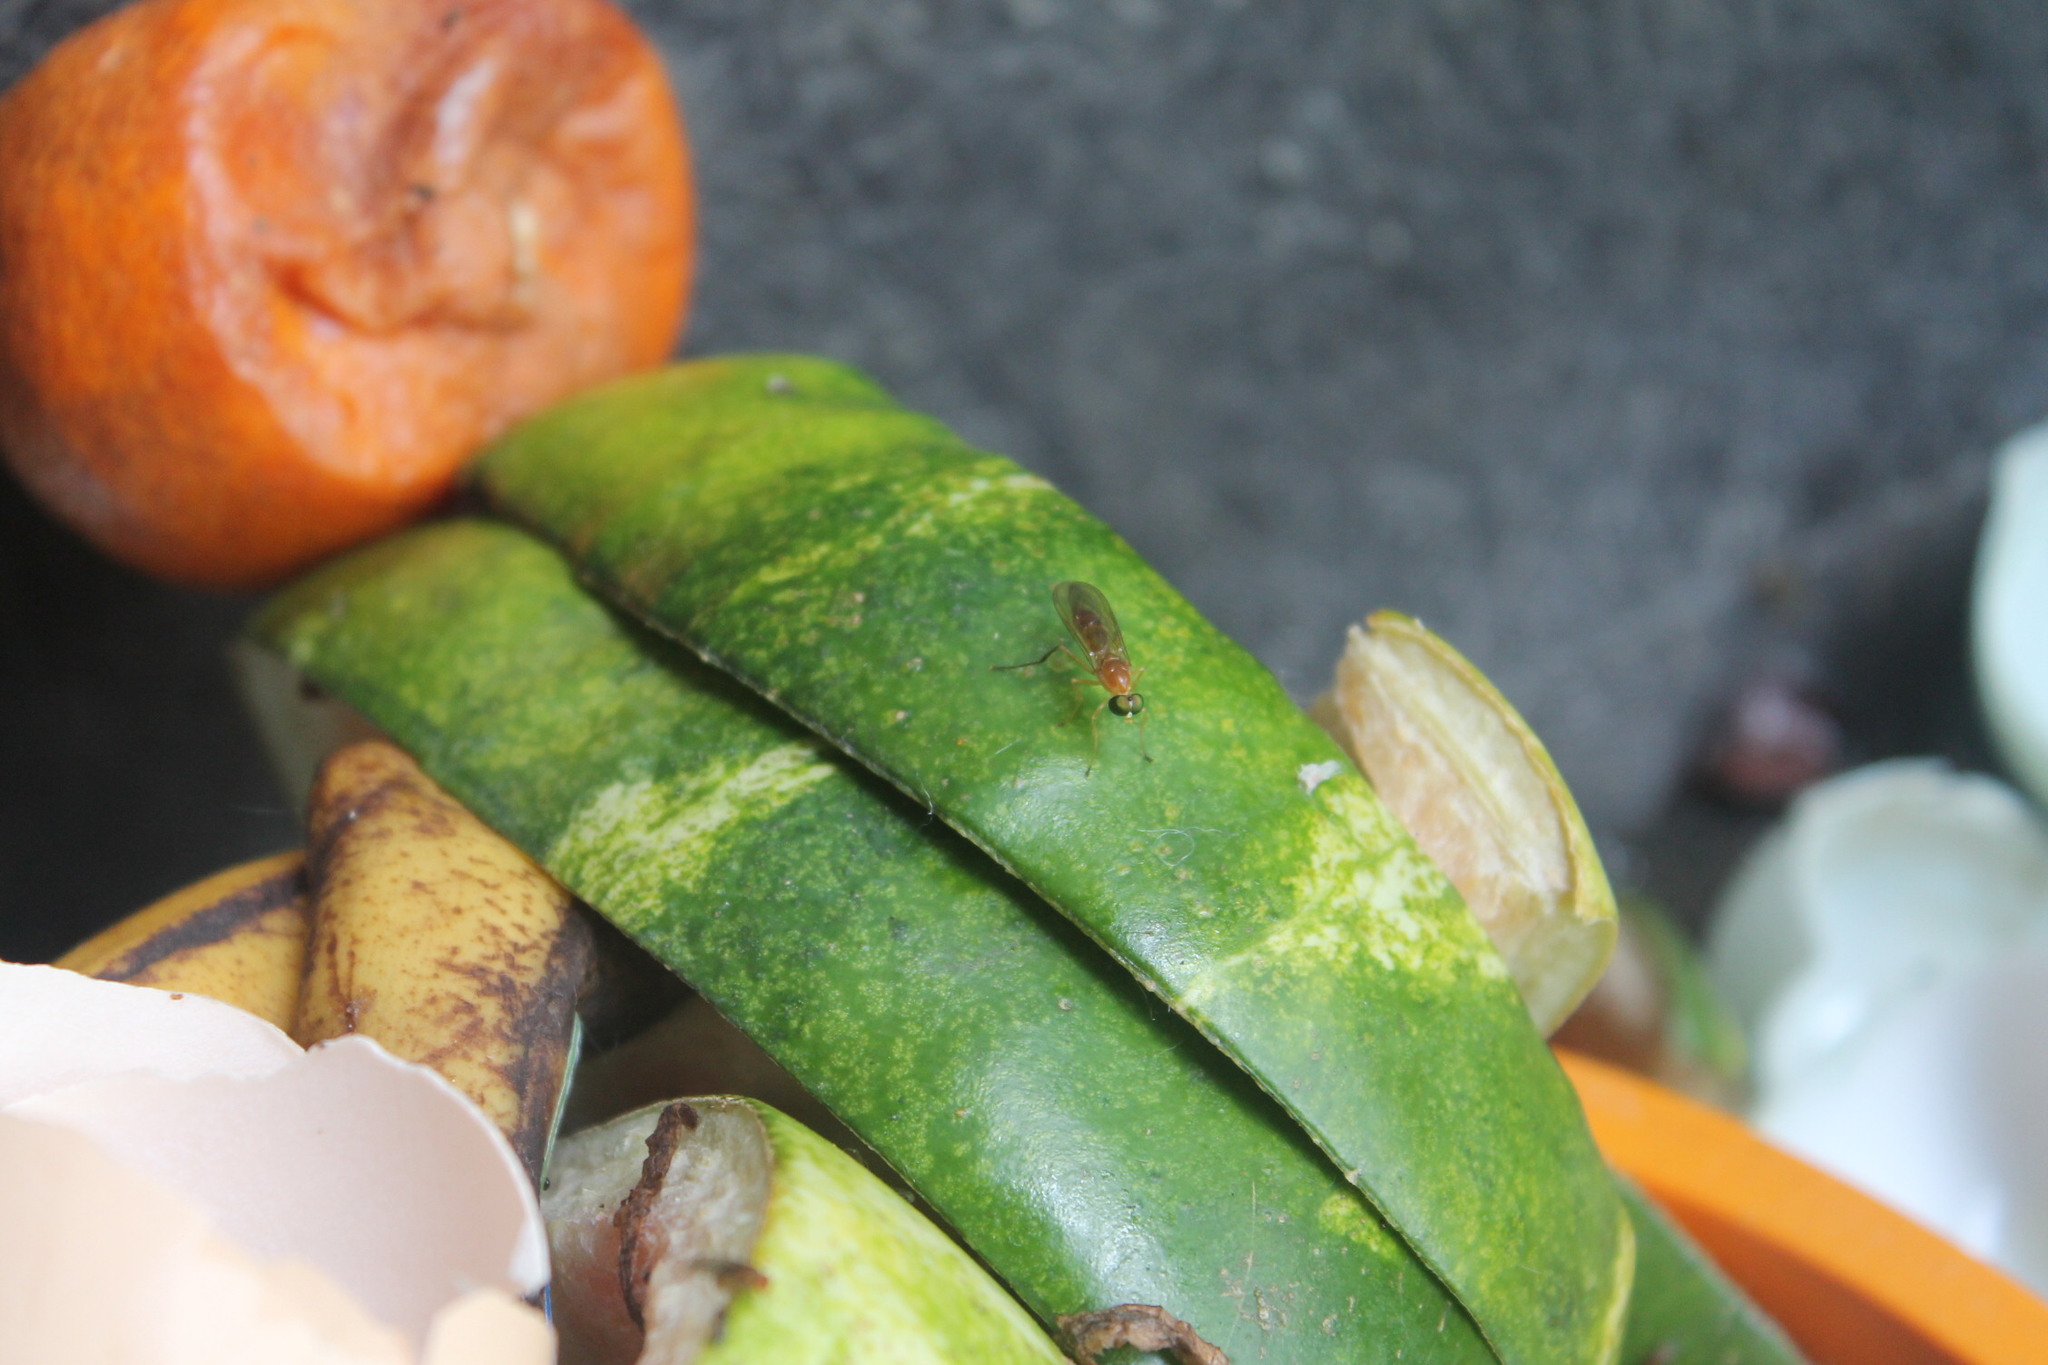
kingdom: Animalia
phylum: Arthropoda
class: Insecta
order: Diptera
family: Stratiomyidae
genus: Ptecticus
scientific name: Ptecticus trivittatus
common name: Compost fly
